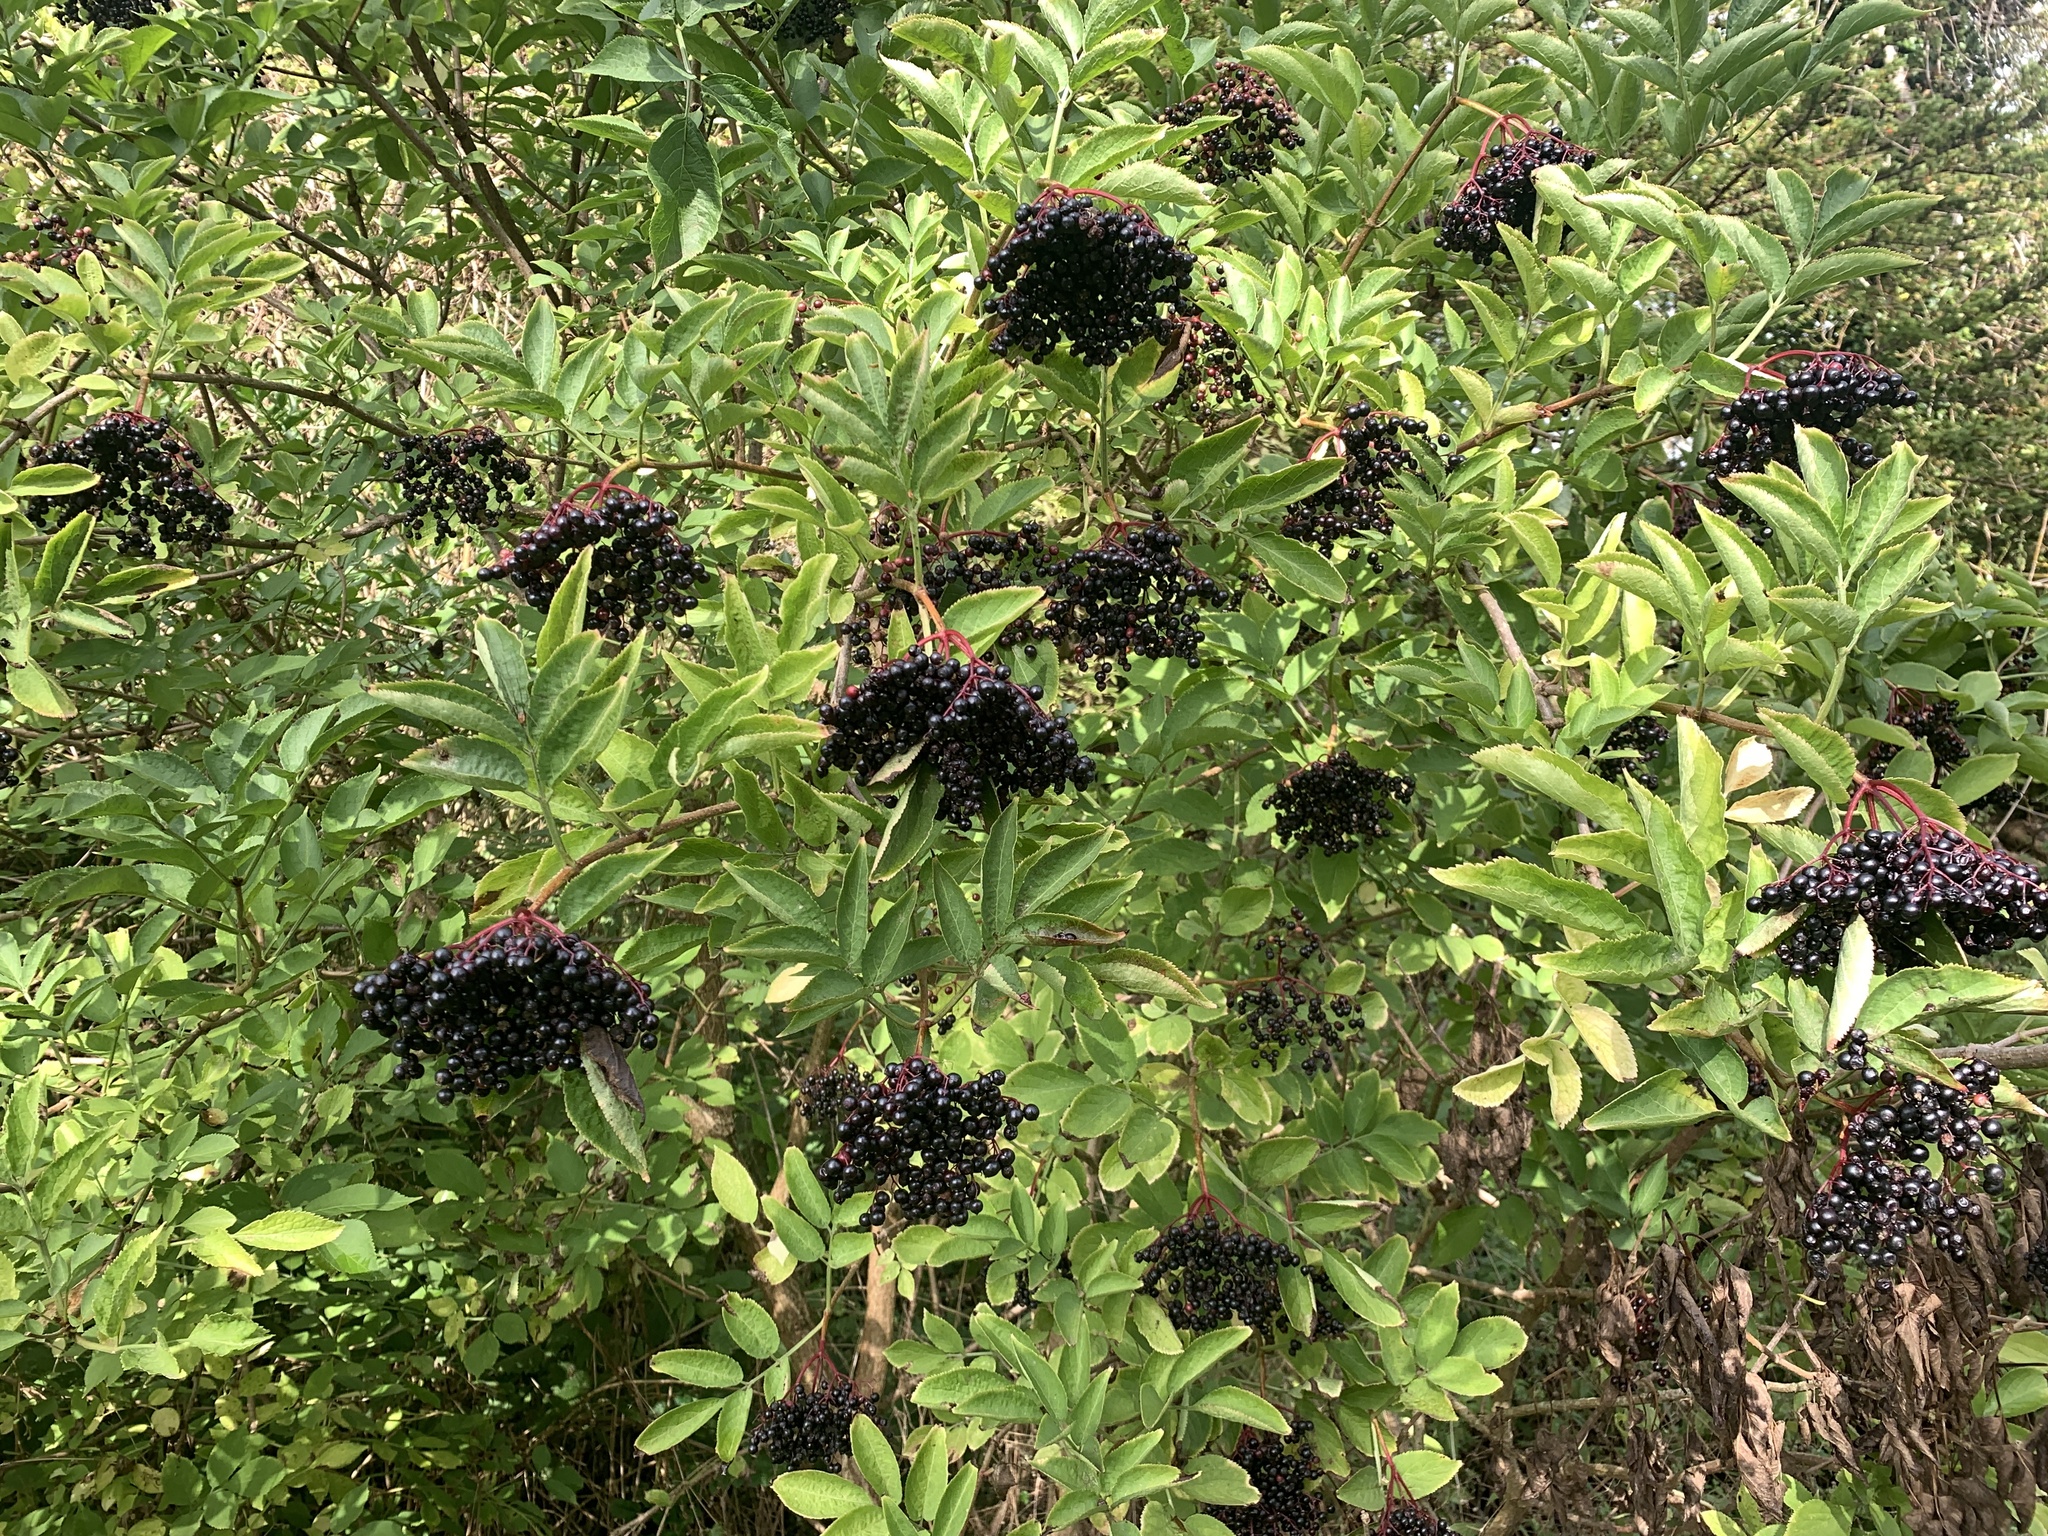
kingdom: Plantae
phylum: Tracheophyta
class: Magnoliopsida
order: Dipsacales
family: Viburnaceae
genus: Sambucus
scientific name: Sambucus nigra
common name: Elder
